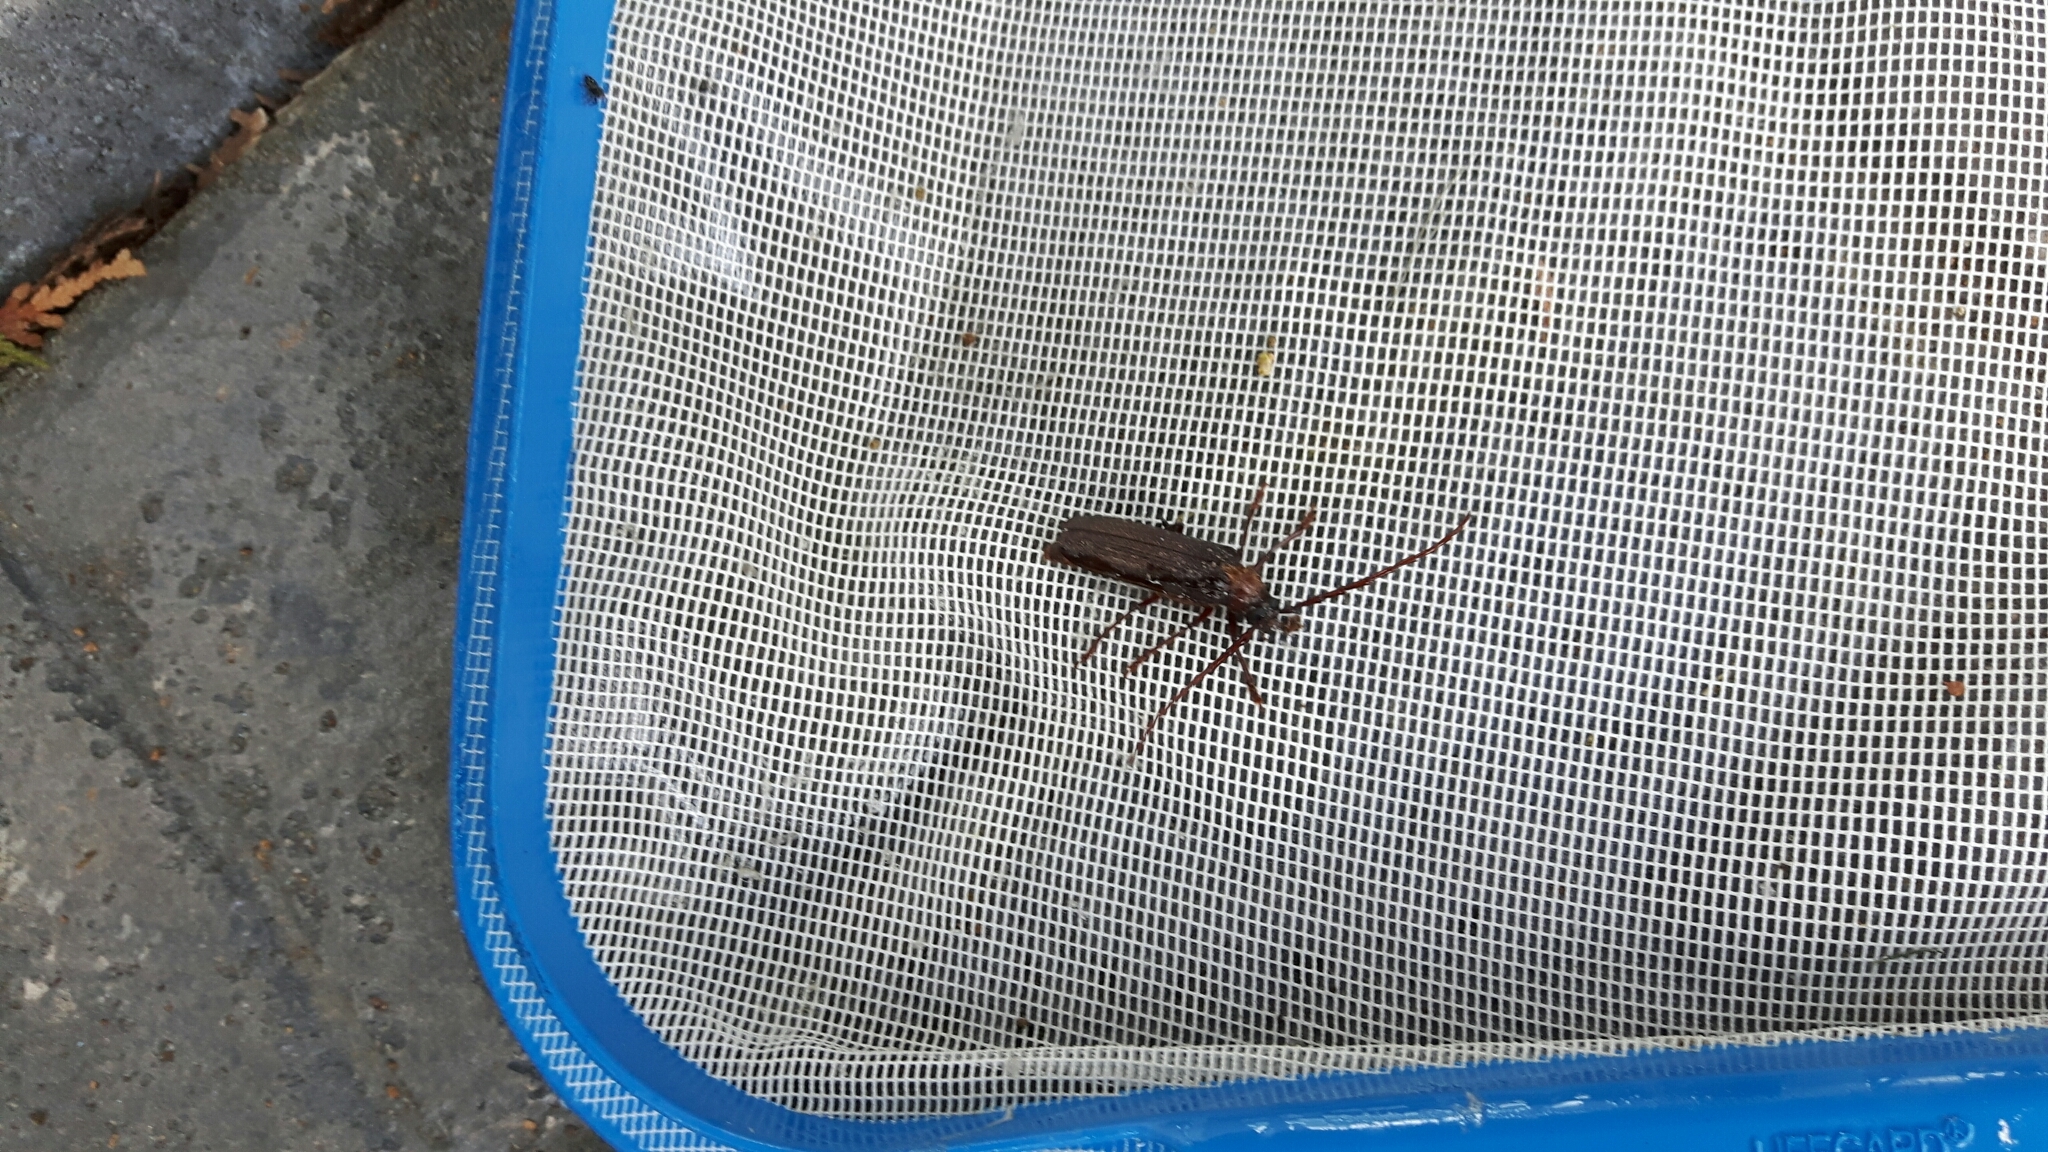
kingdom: Animalia
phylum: Arthropoda
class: Insecta
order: Coleoptera
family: Cerambycidae
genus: Tragosoma
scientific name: Tragosoma harrisii
